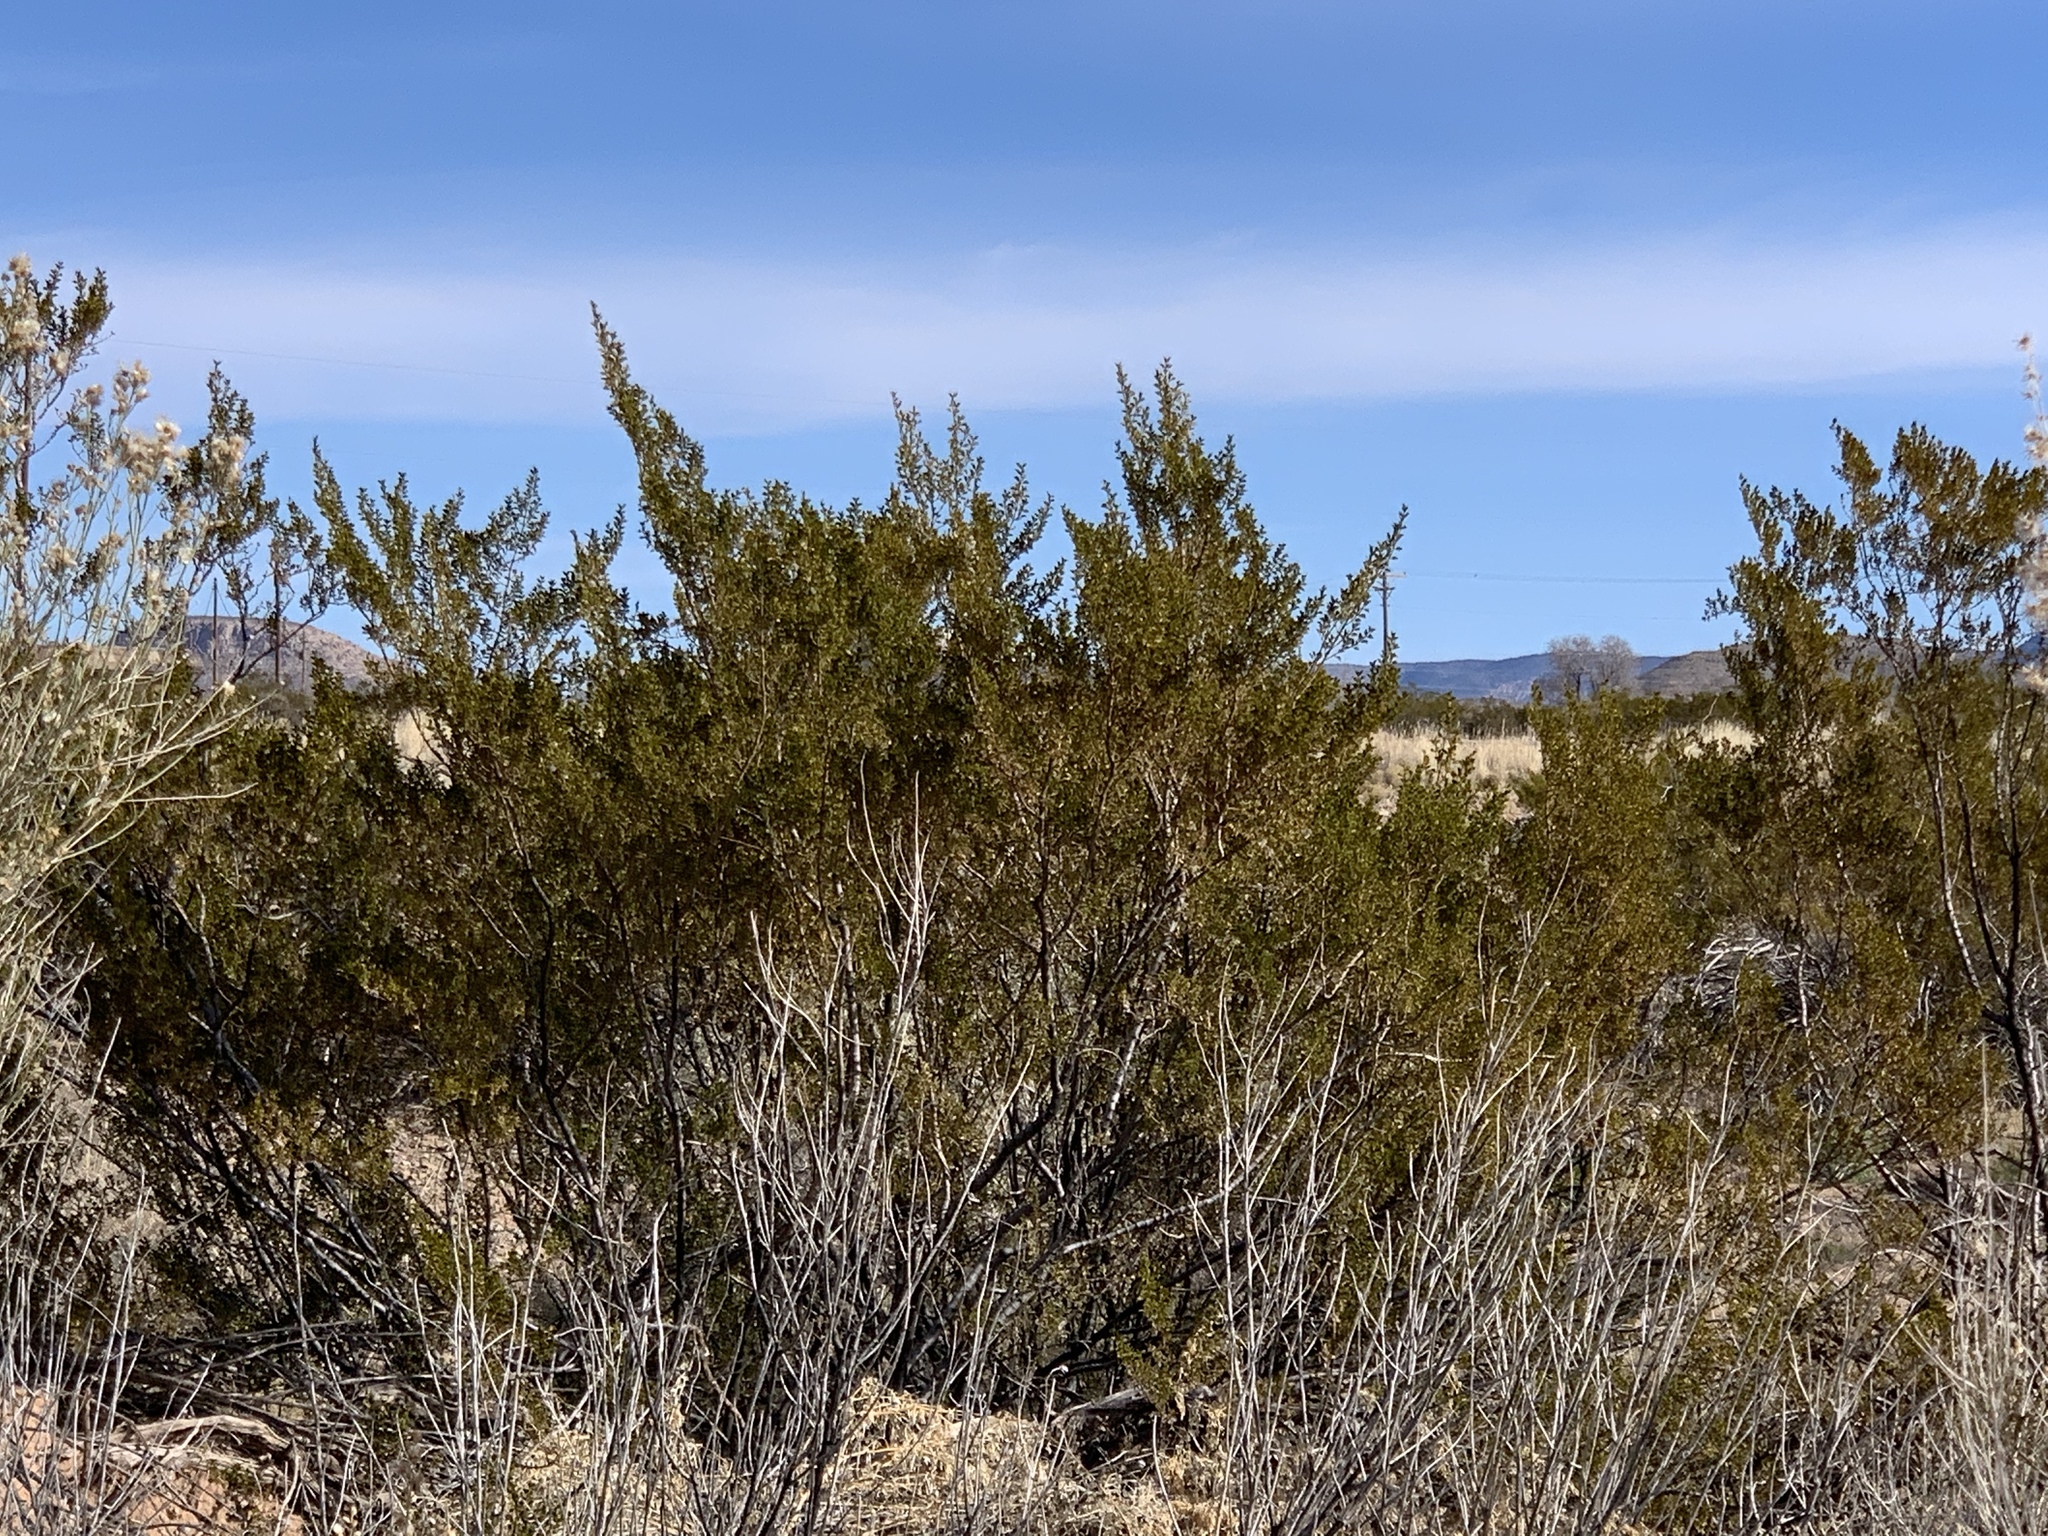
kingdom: Plantae
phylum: Tracheophyta
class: Magnoliopsida
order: Zygophyllales
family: Zygophyllaceae
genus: Larrea
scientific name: Larrea tridentata
